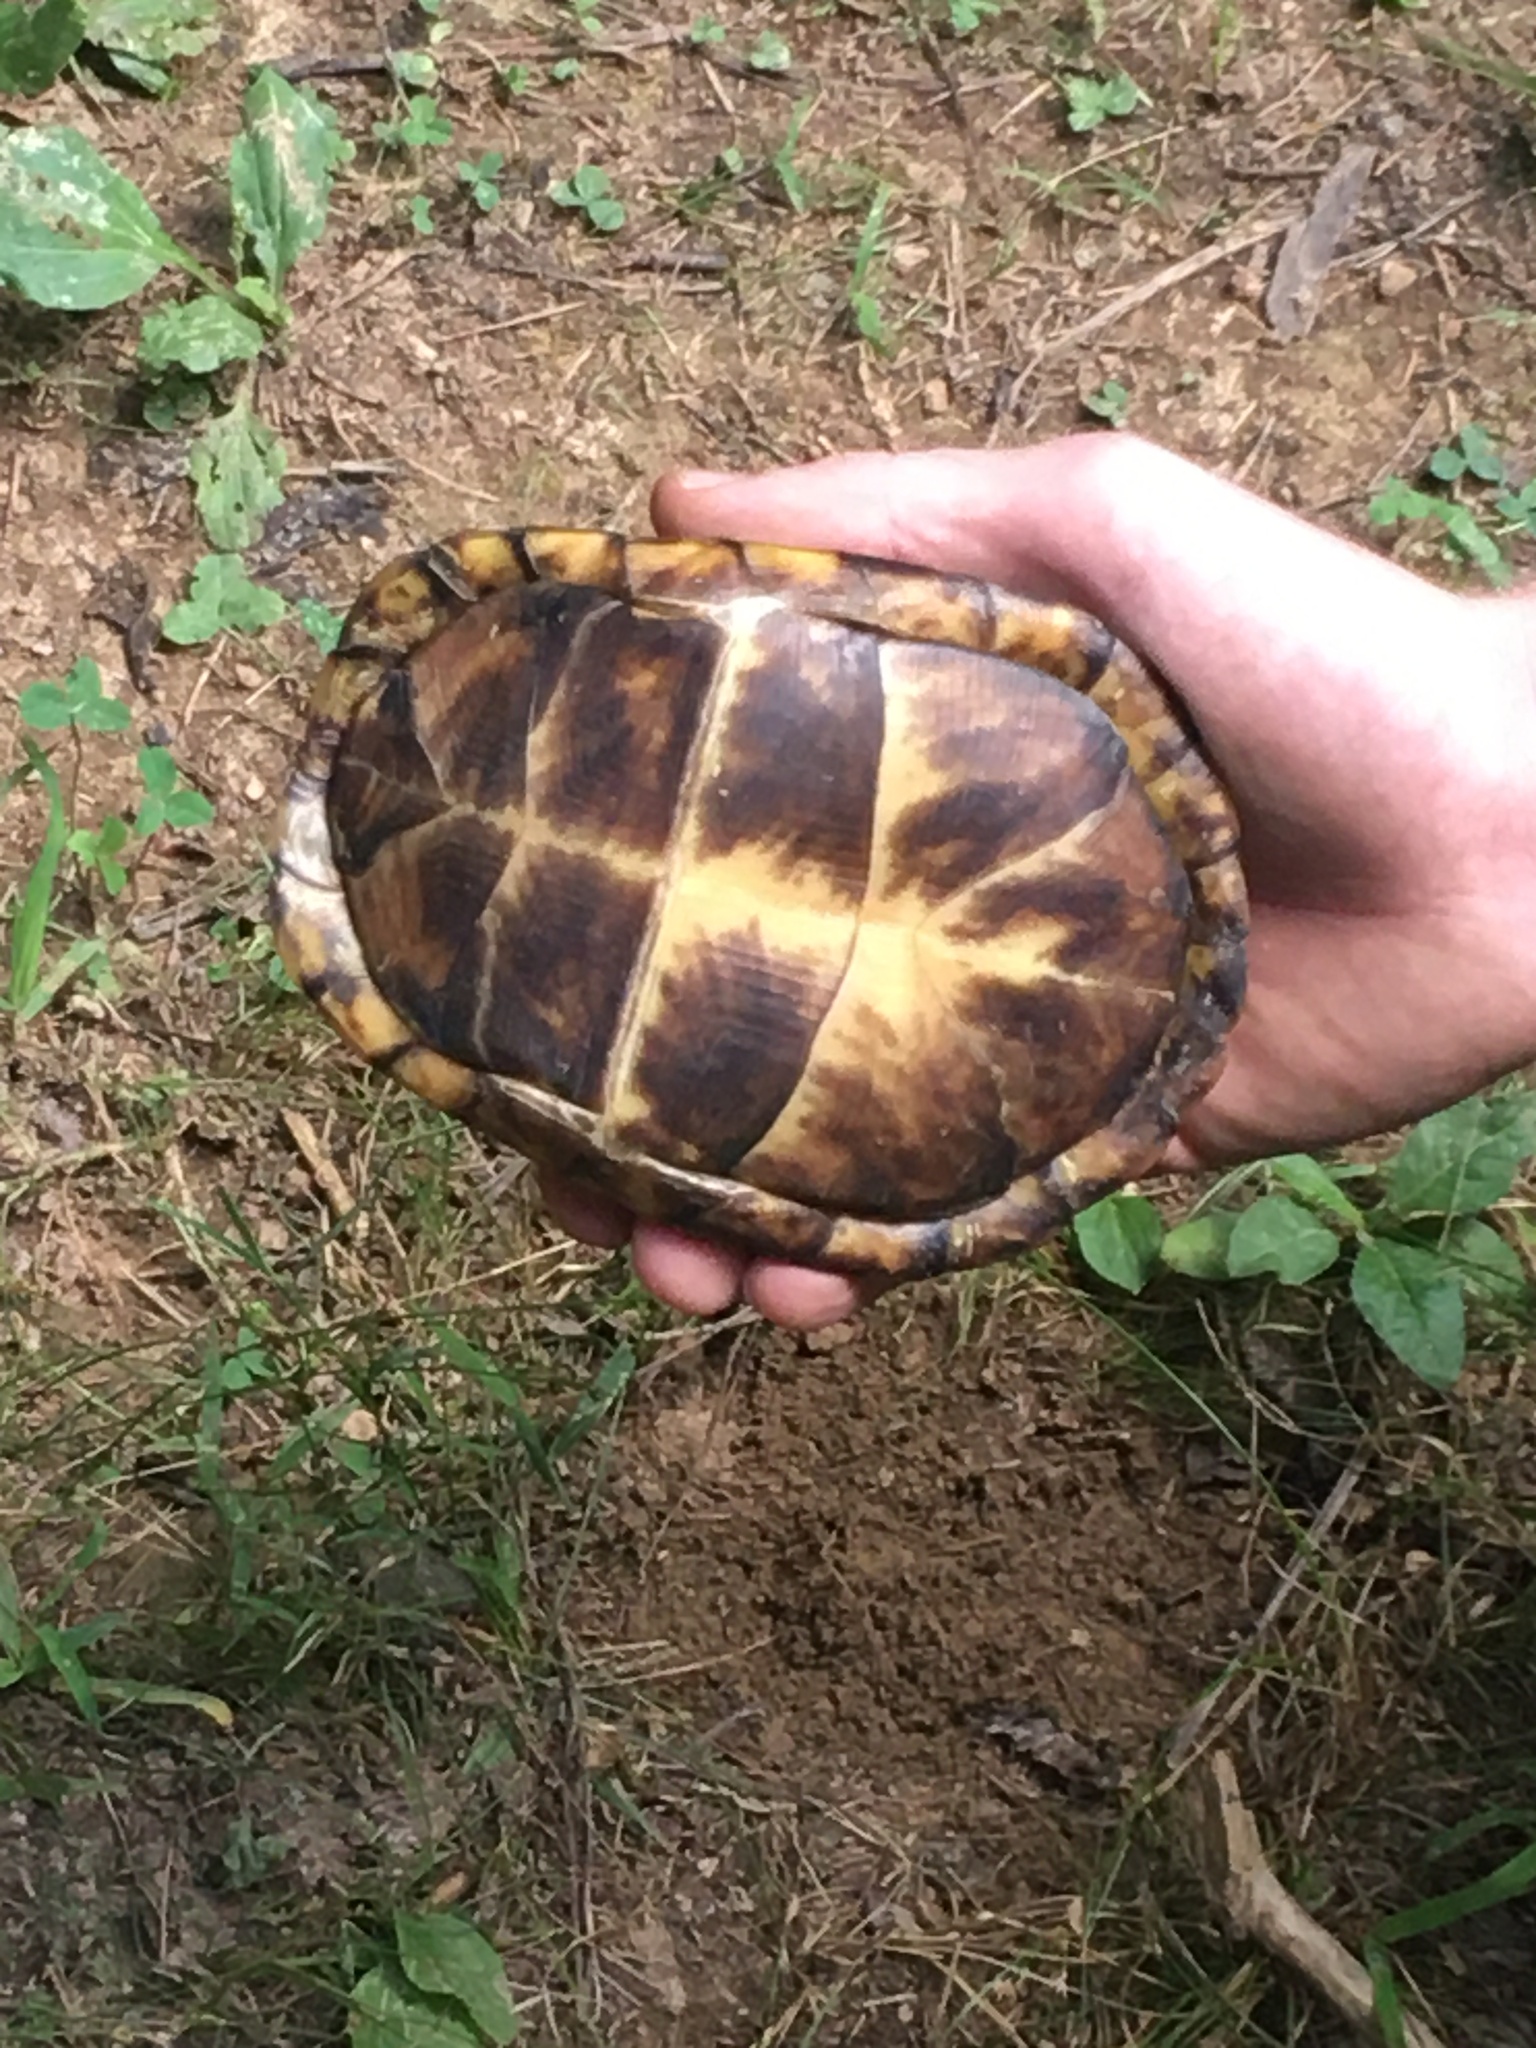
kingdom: Animalia
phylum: Chordata
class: Testudines
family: Emydidae
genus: Terrapene
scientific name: Terrapene carolina
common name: Common box turtle
